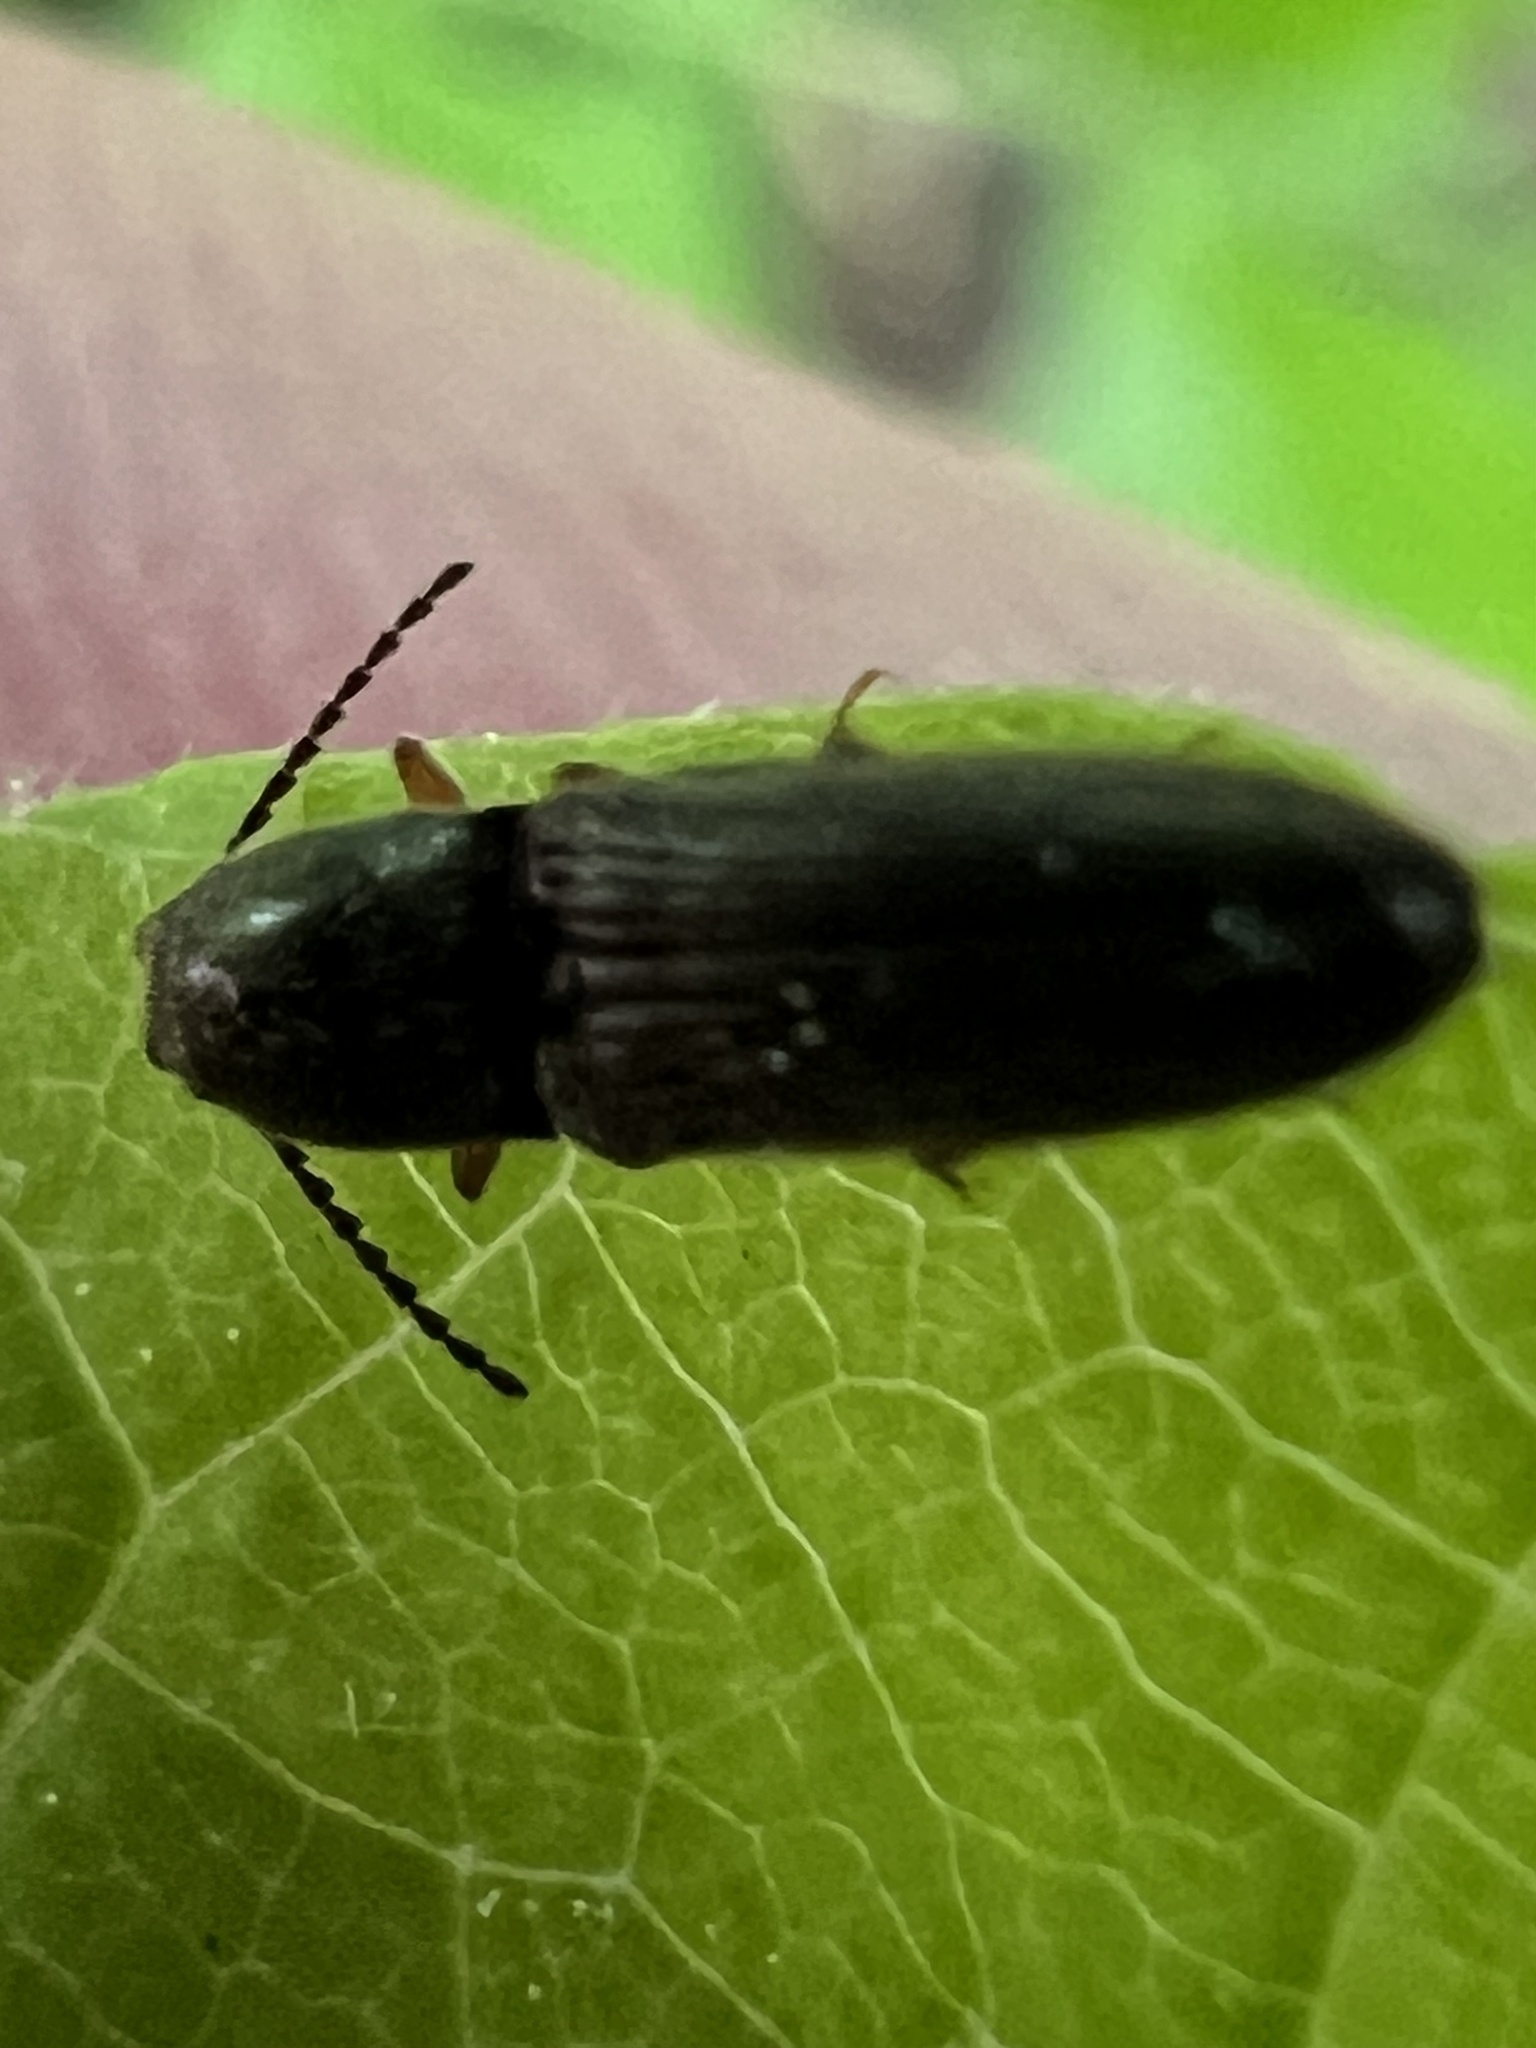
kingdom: Animalia
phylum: Arthropoda
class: Insecta
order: Coleoptera
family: Elateridae
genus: Limonius
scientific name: Limonius quercinus
